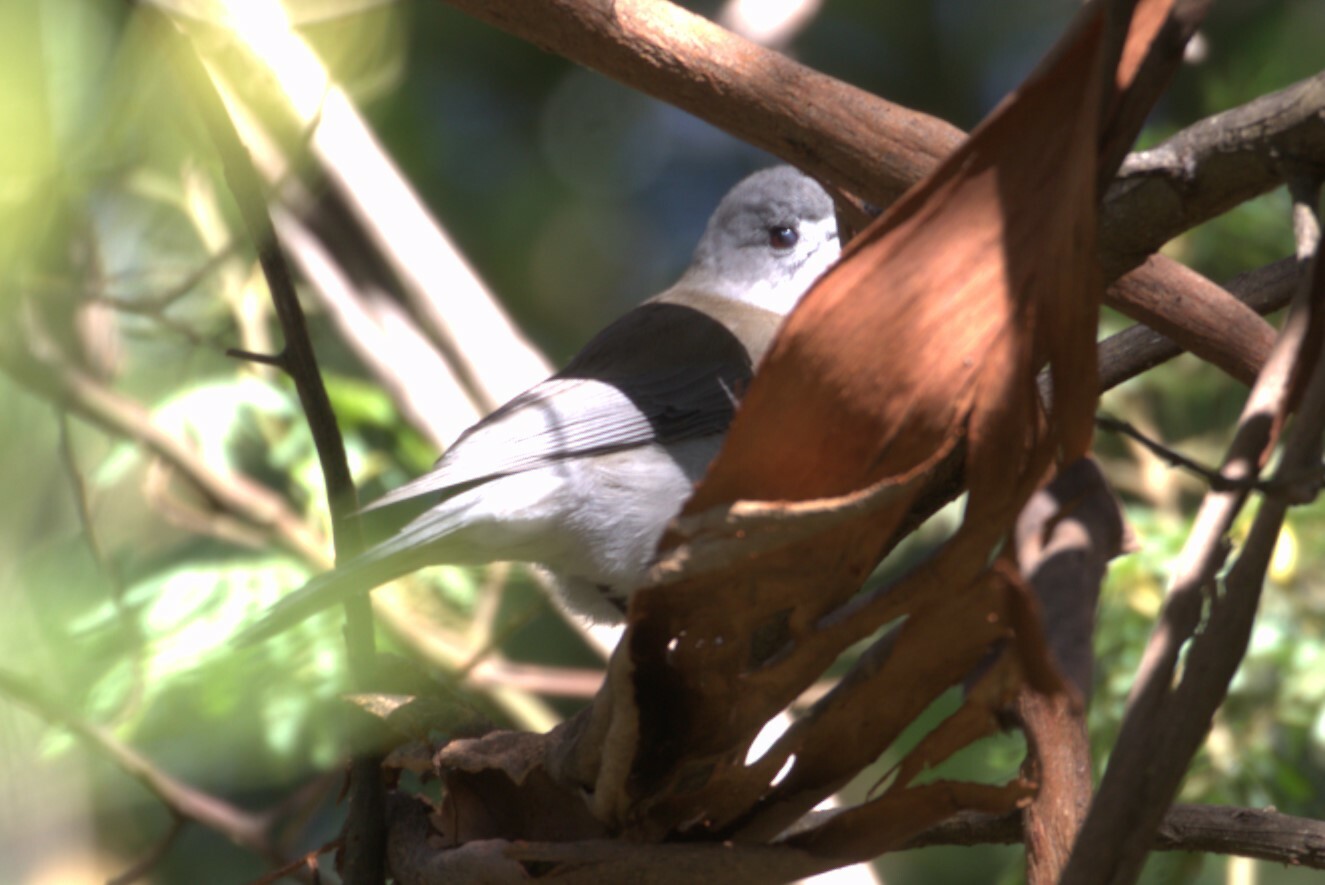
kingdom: Animalia
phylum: Chordata
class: Aves
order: Passeriformes
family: Pachycephalidae
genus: Colluricincla
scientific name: Colluricincla harmonica
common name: Grey shrikethrush
